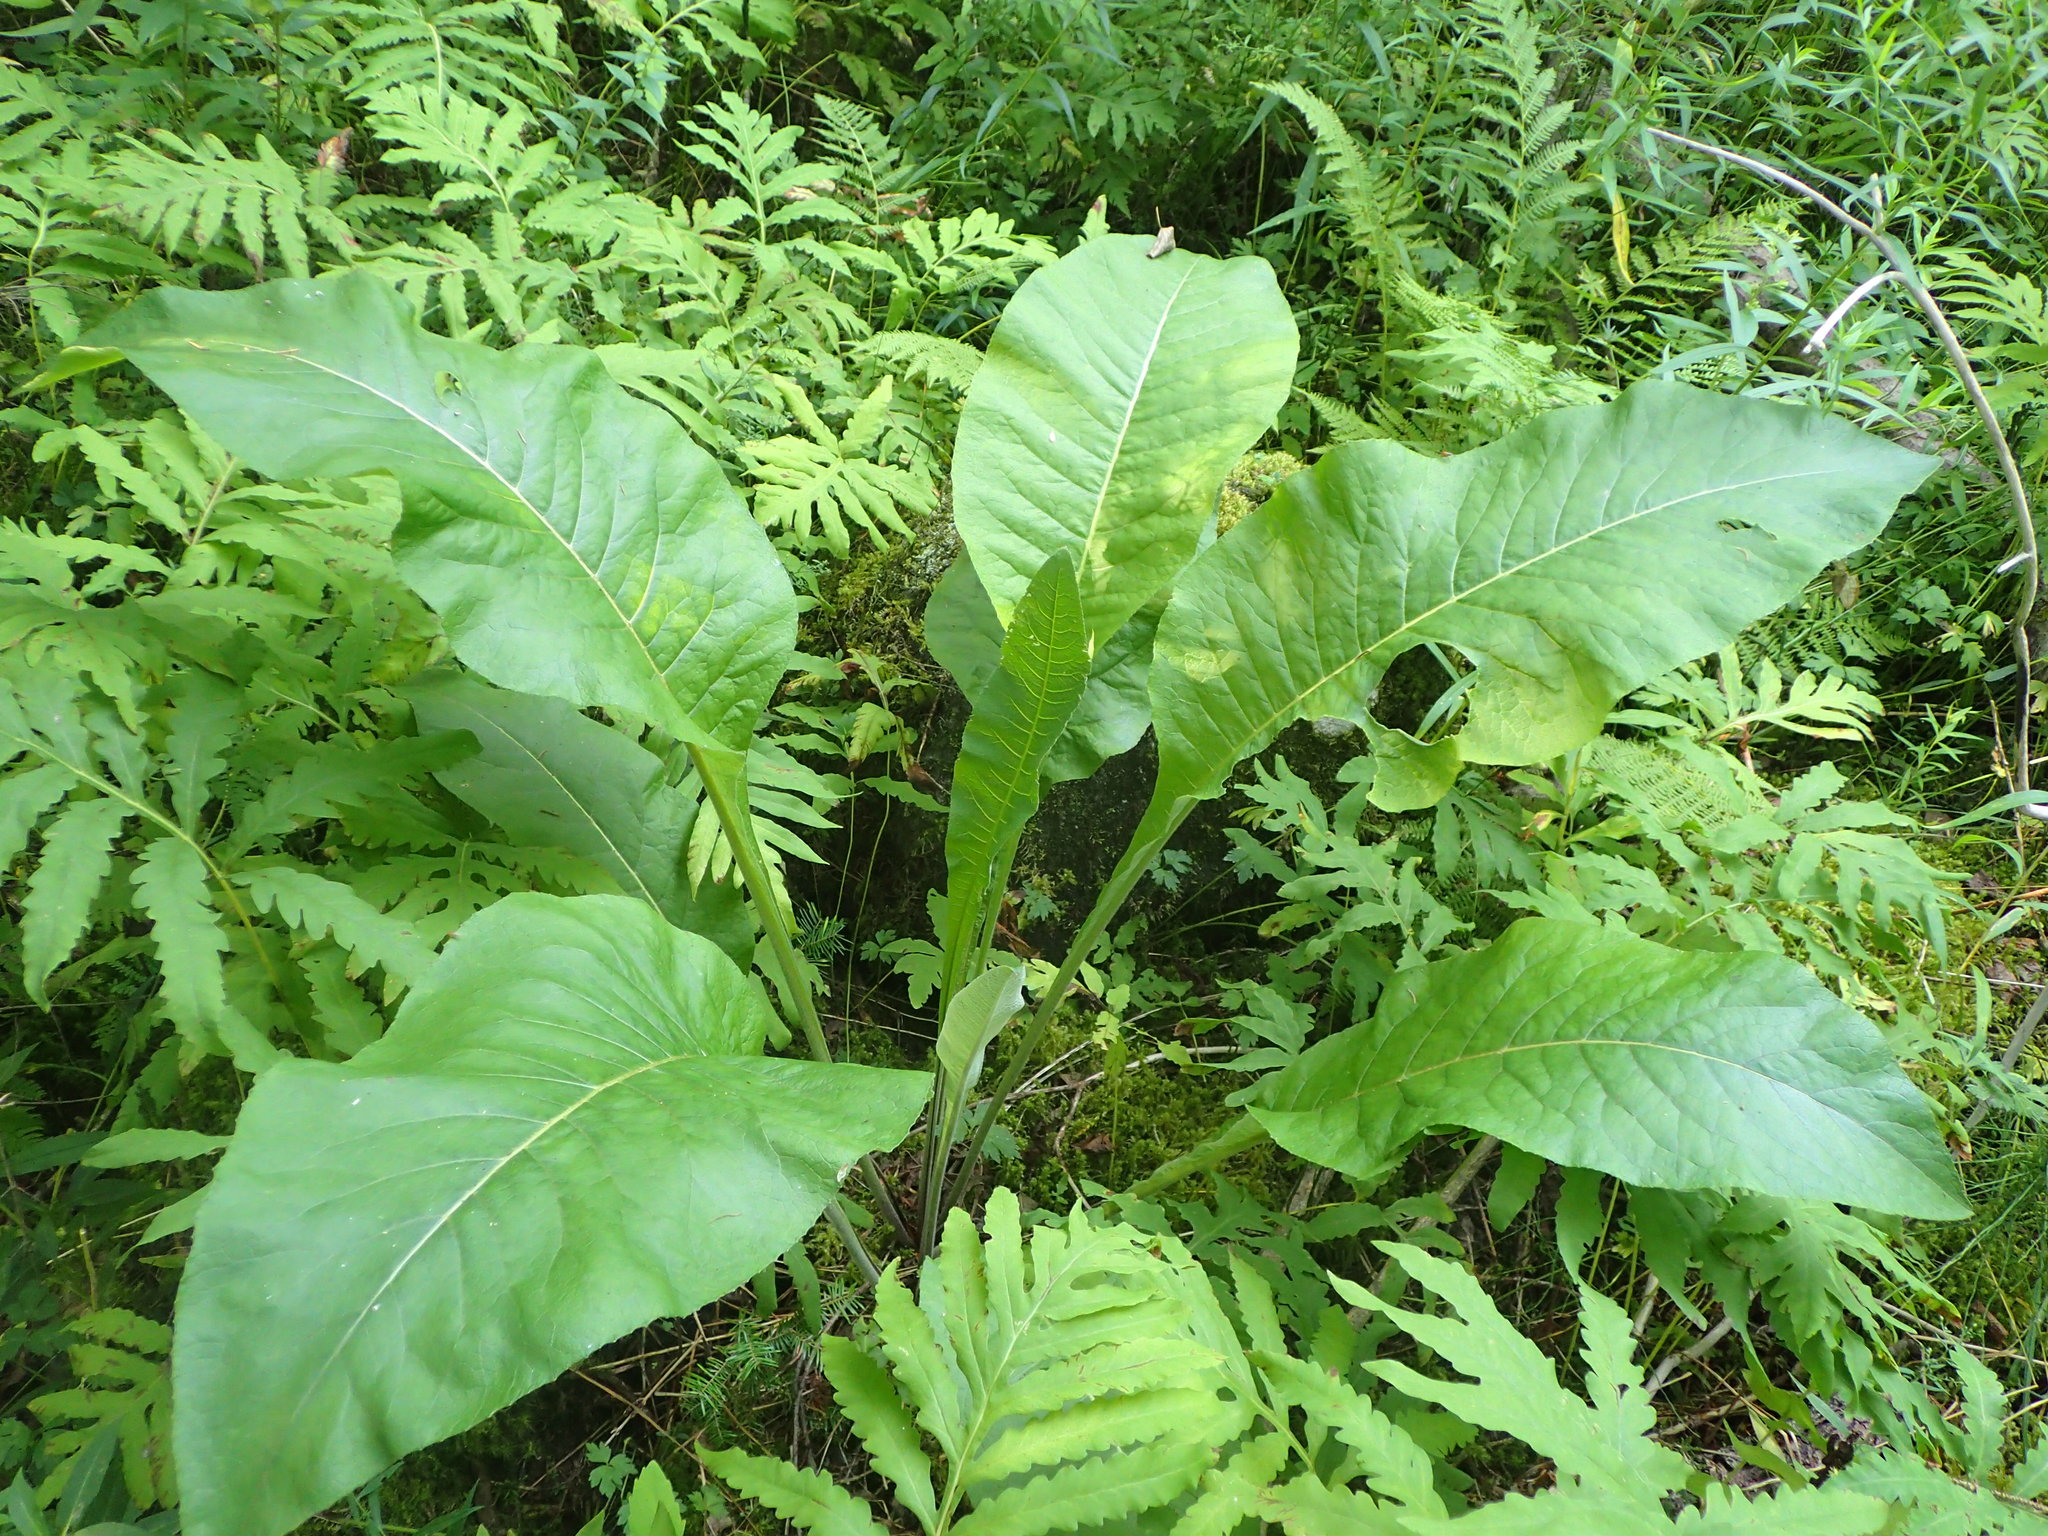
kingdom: Plantae
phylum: Tracheophyta
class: Magnoliopsida
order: Asterales
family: Asteraceae
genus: Inula
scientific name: Inula helenium
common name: Elecampane
